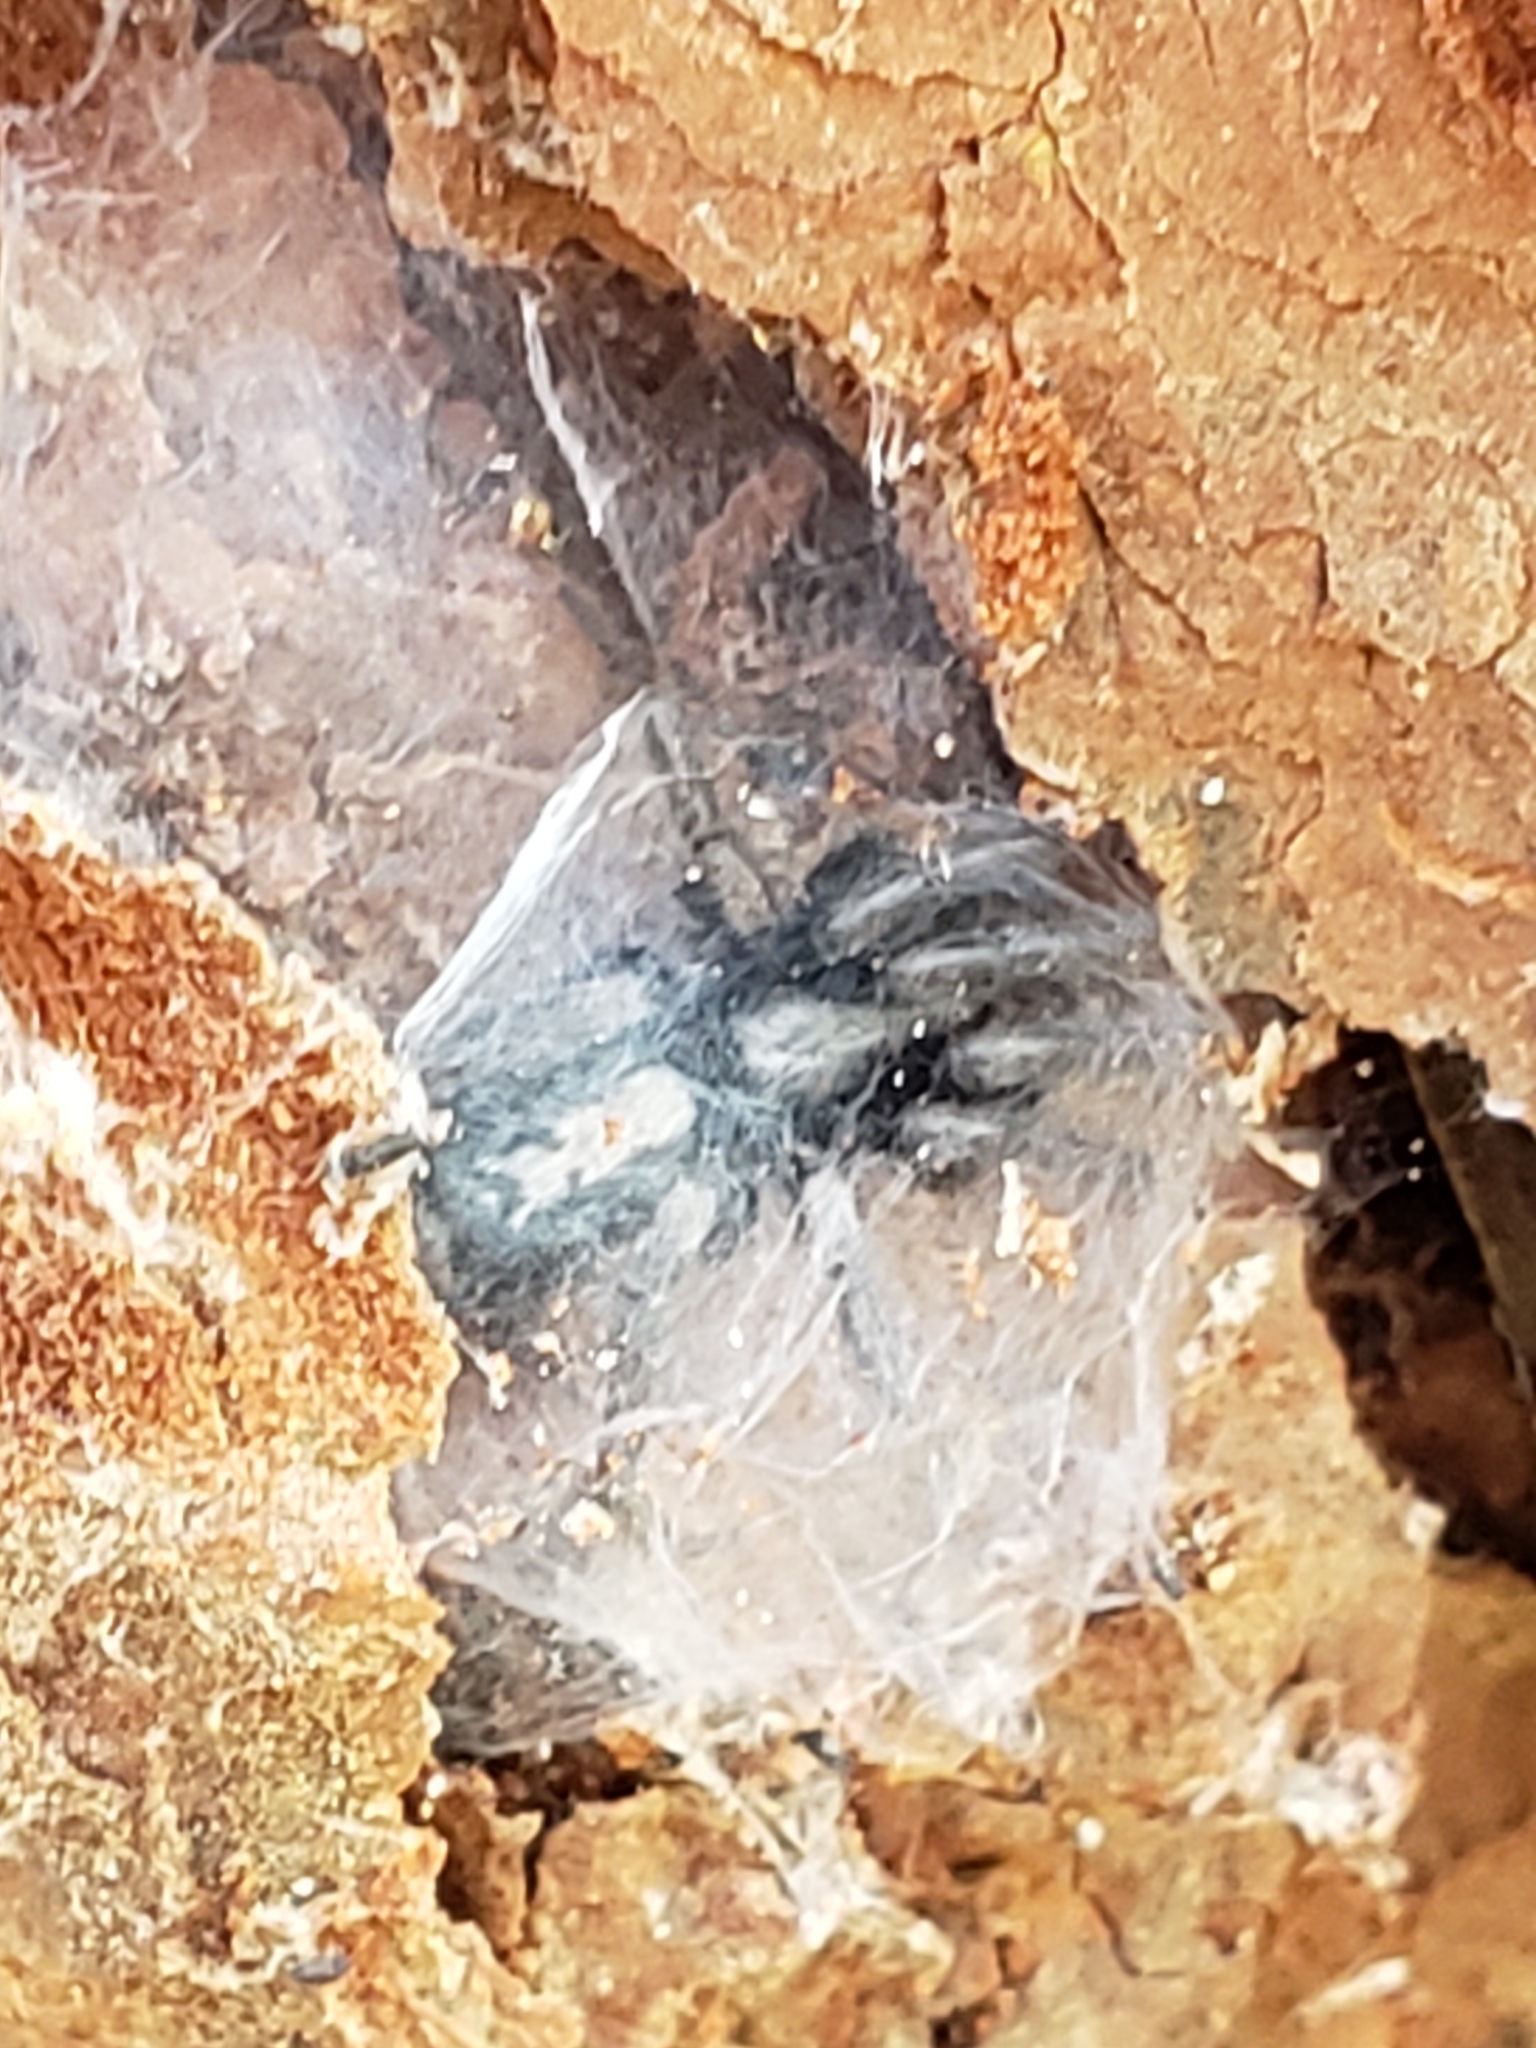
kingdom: Animalia
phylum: Arthropoda
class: Arachnida
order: Araneae
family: Gnaphosidae
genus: Herpyllus
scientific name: Herpyllus ecclesiasticus
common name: Eastern parson spider
